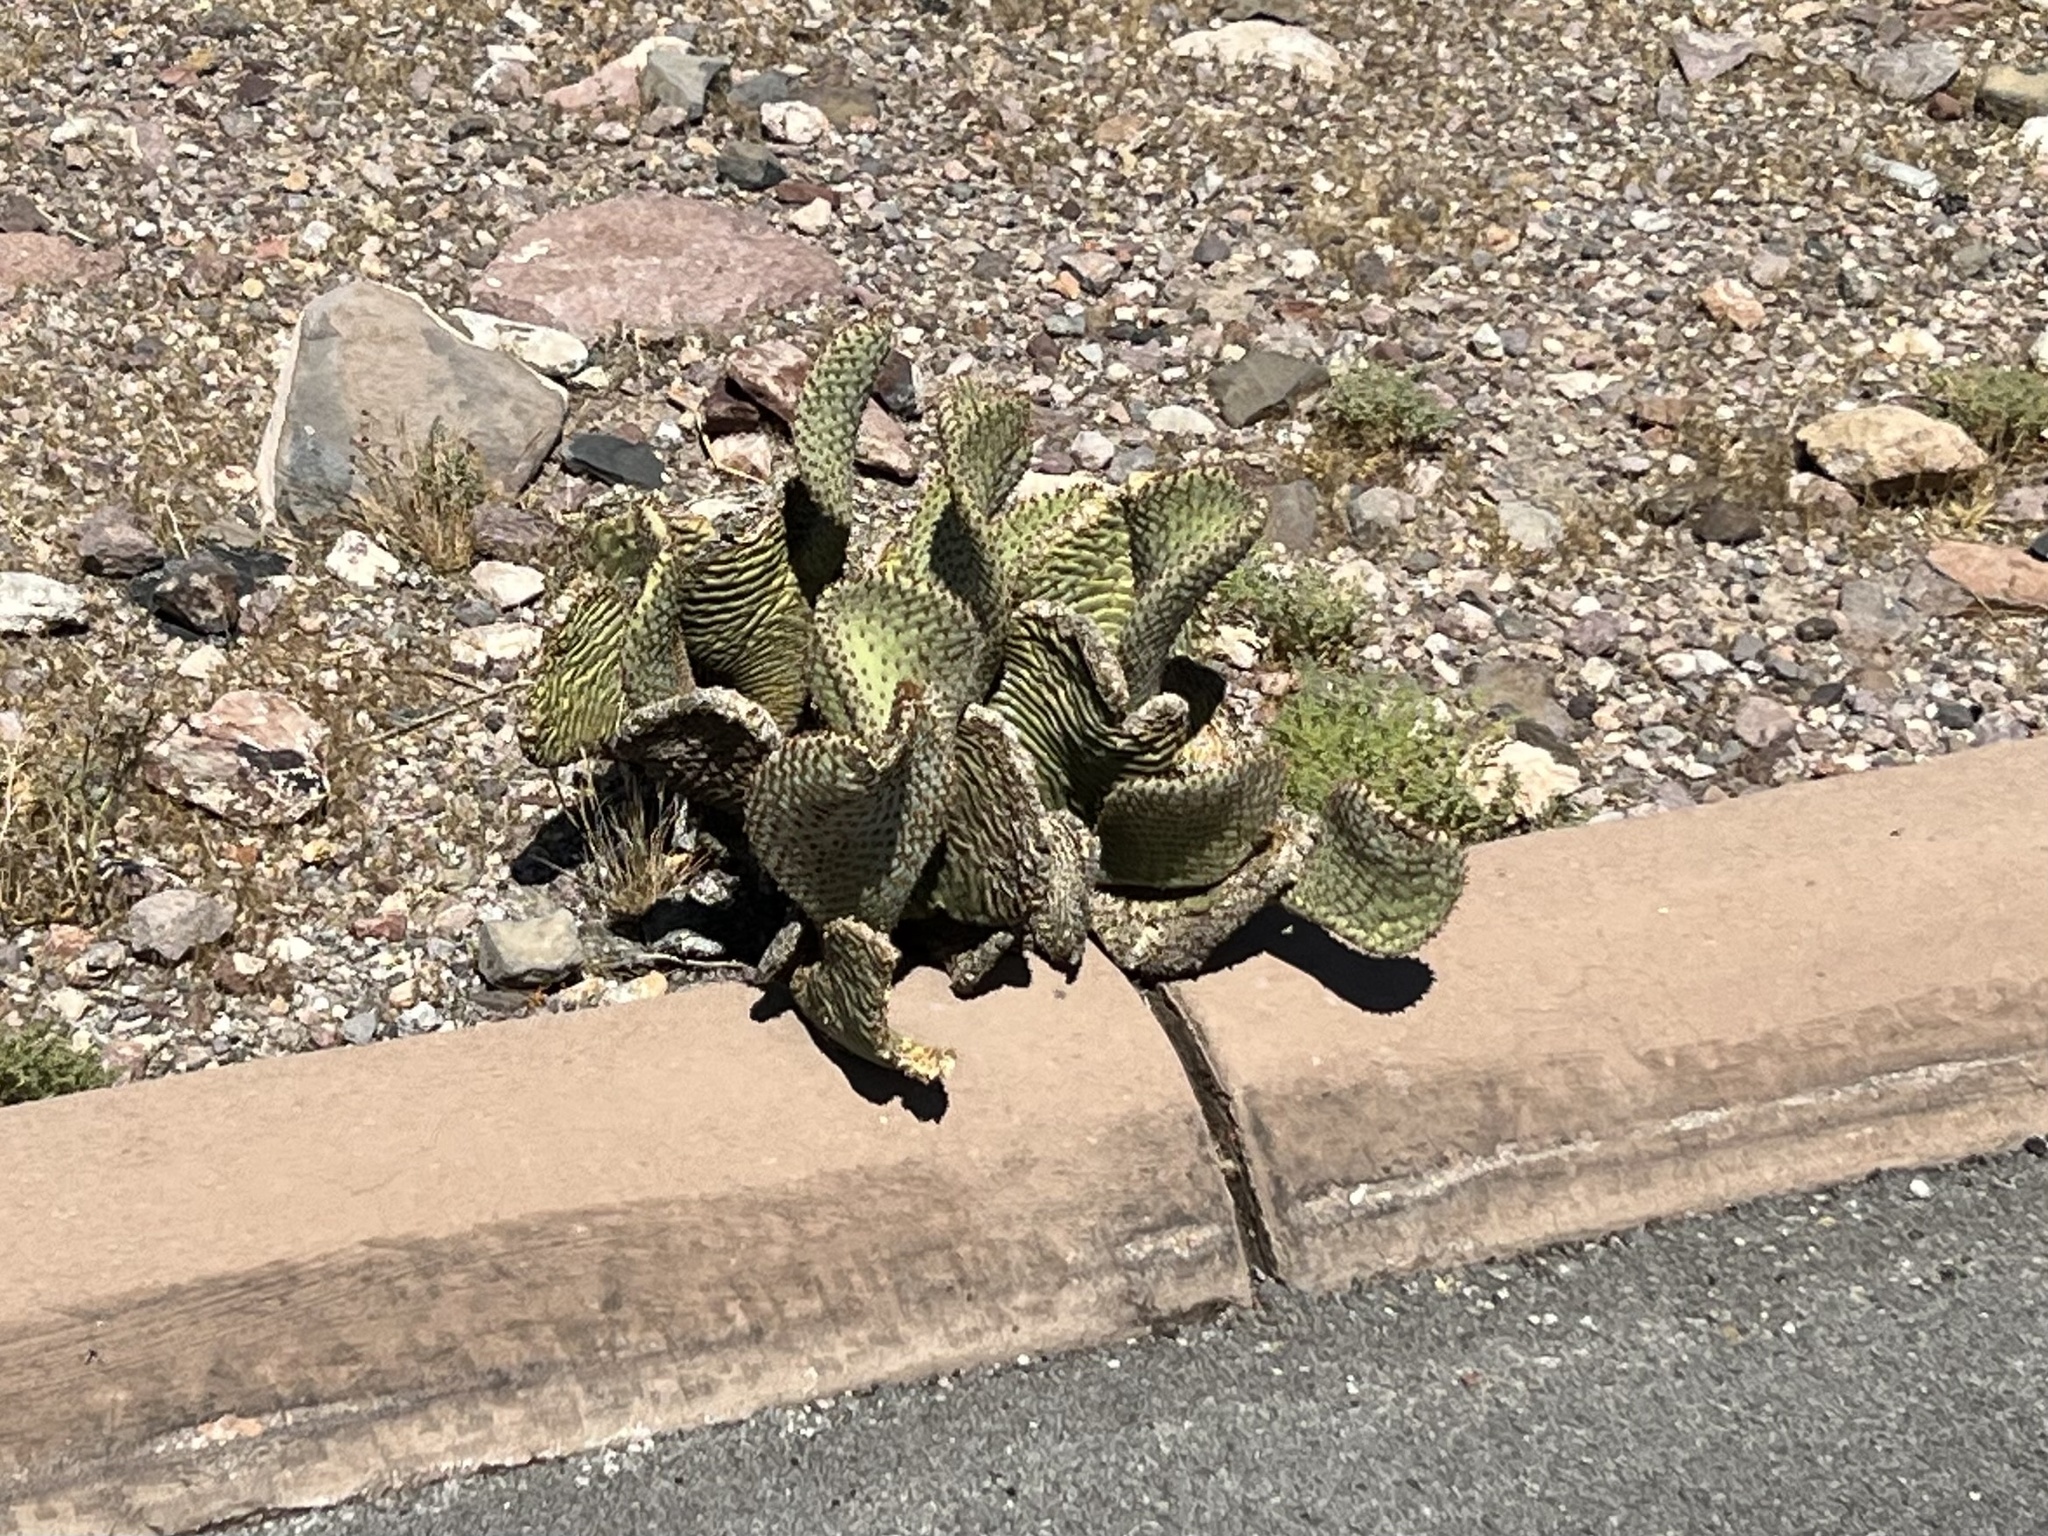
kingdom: Plantae
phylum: Tracheophyta
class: Magnoliopsida
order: Caryophyllales
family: Cactaceae
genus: Opuntia
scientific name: Opuntia basilaris
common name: Beavertail prickly-pear
